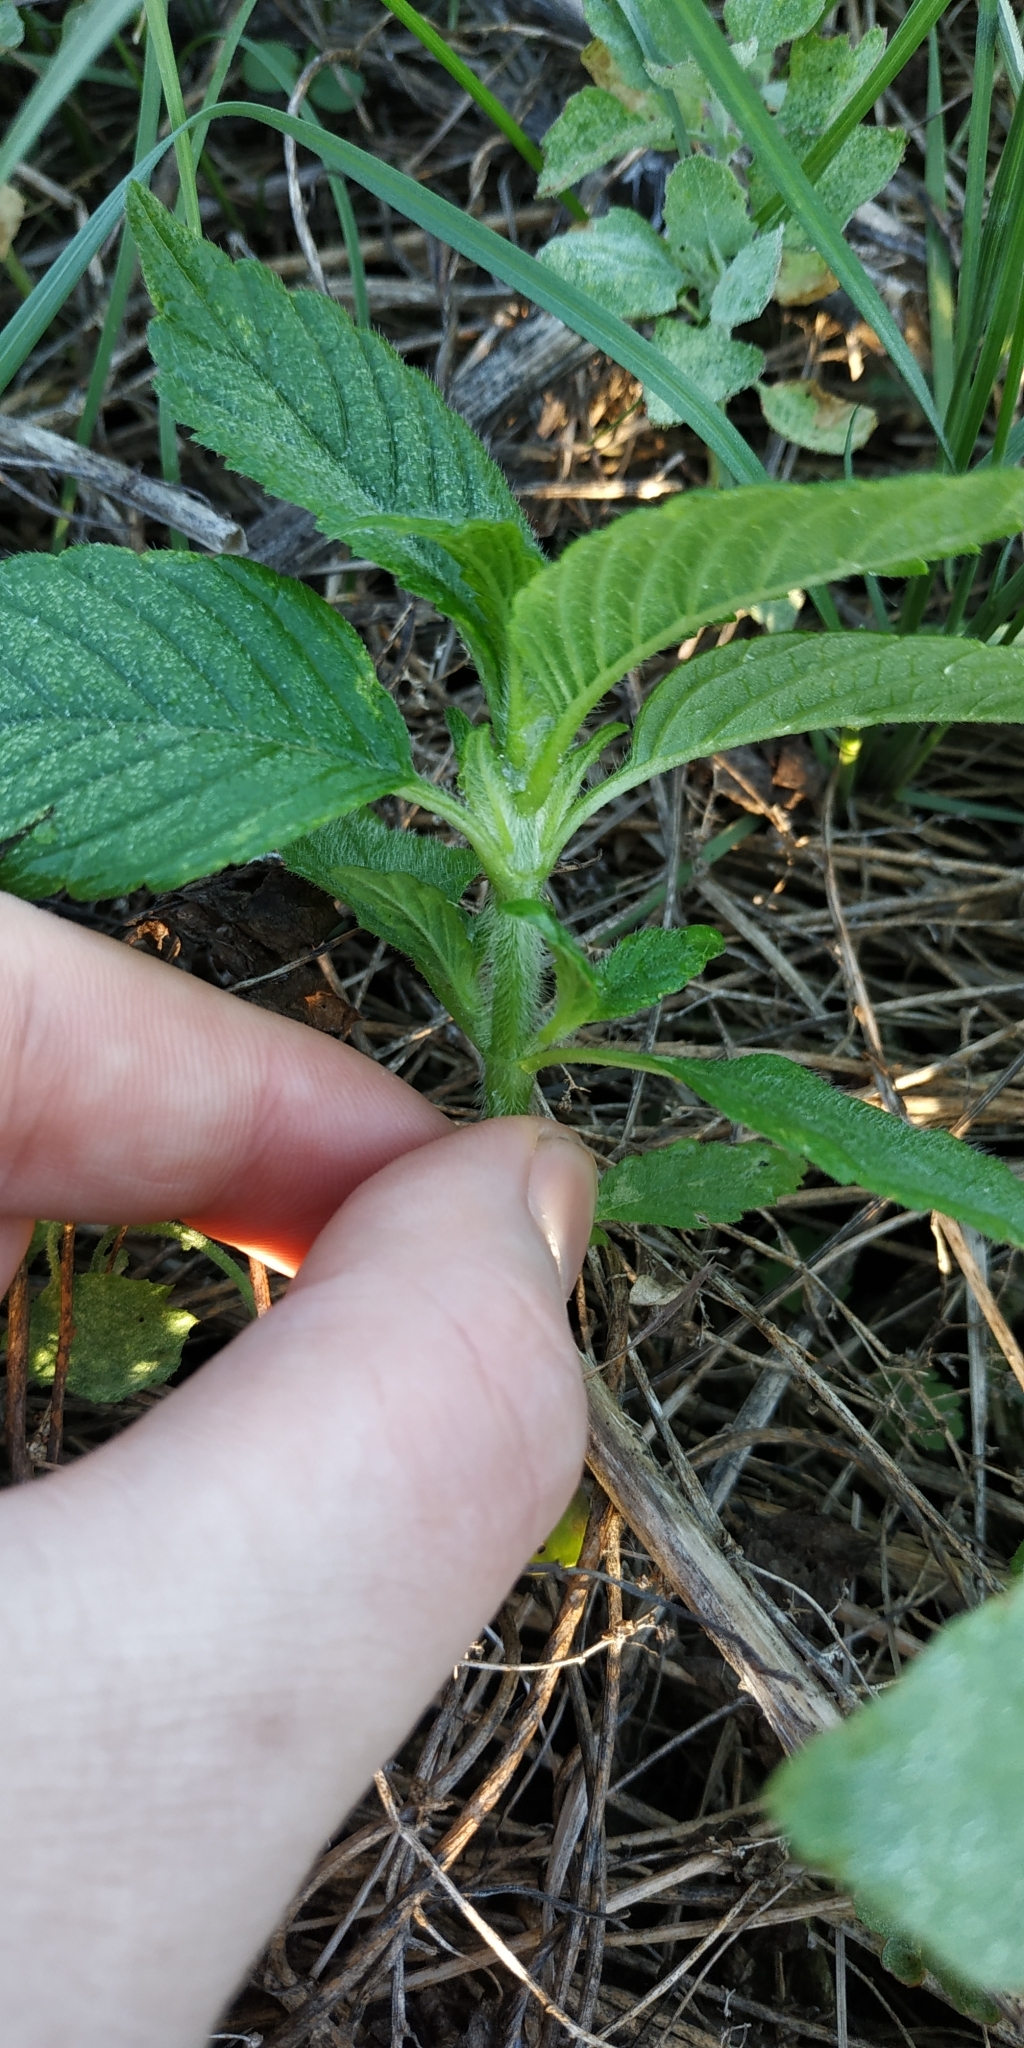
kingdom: Plantae
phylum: Tracheophyta
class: Magnoliopsida
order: Lamiales
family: Lamiaceae
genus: Galeopsis
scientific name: Galeopsis bifida
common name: Bifid hemp-nettle
